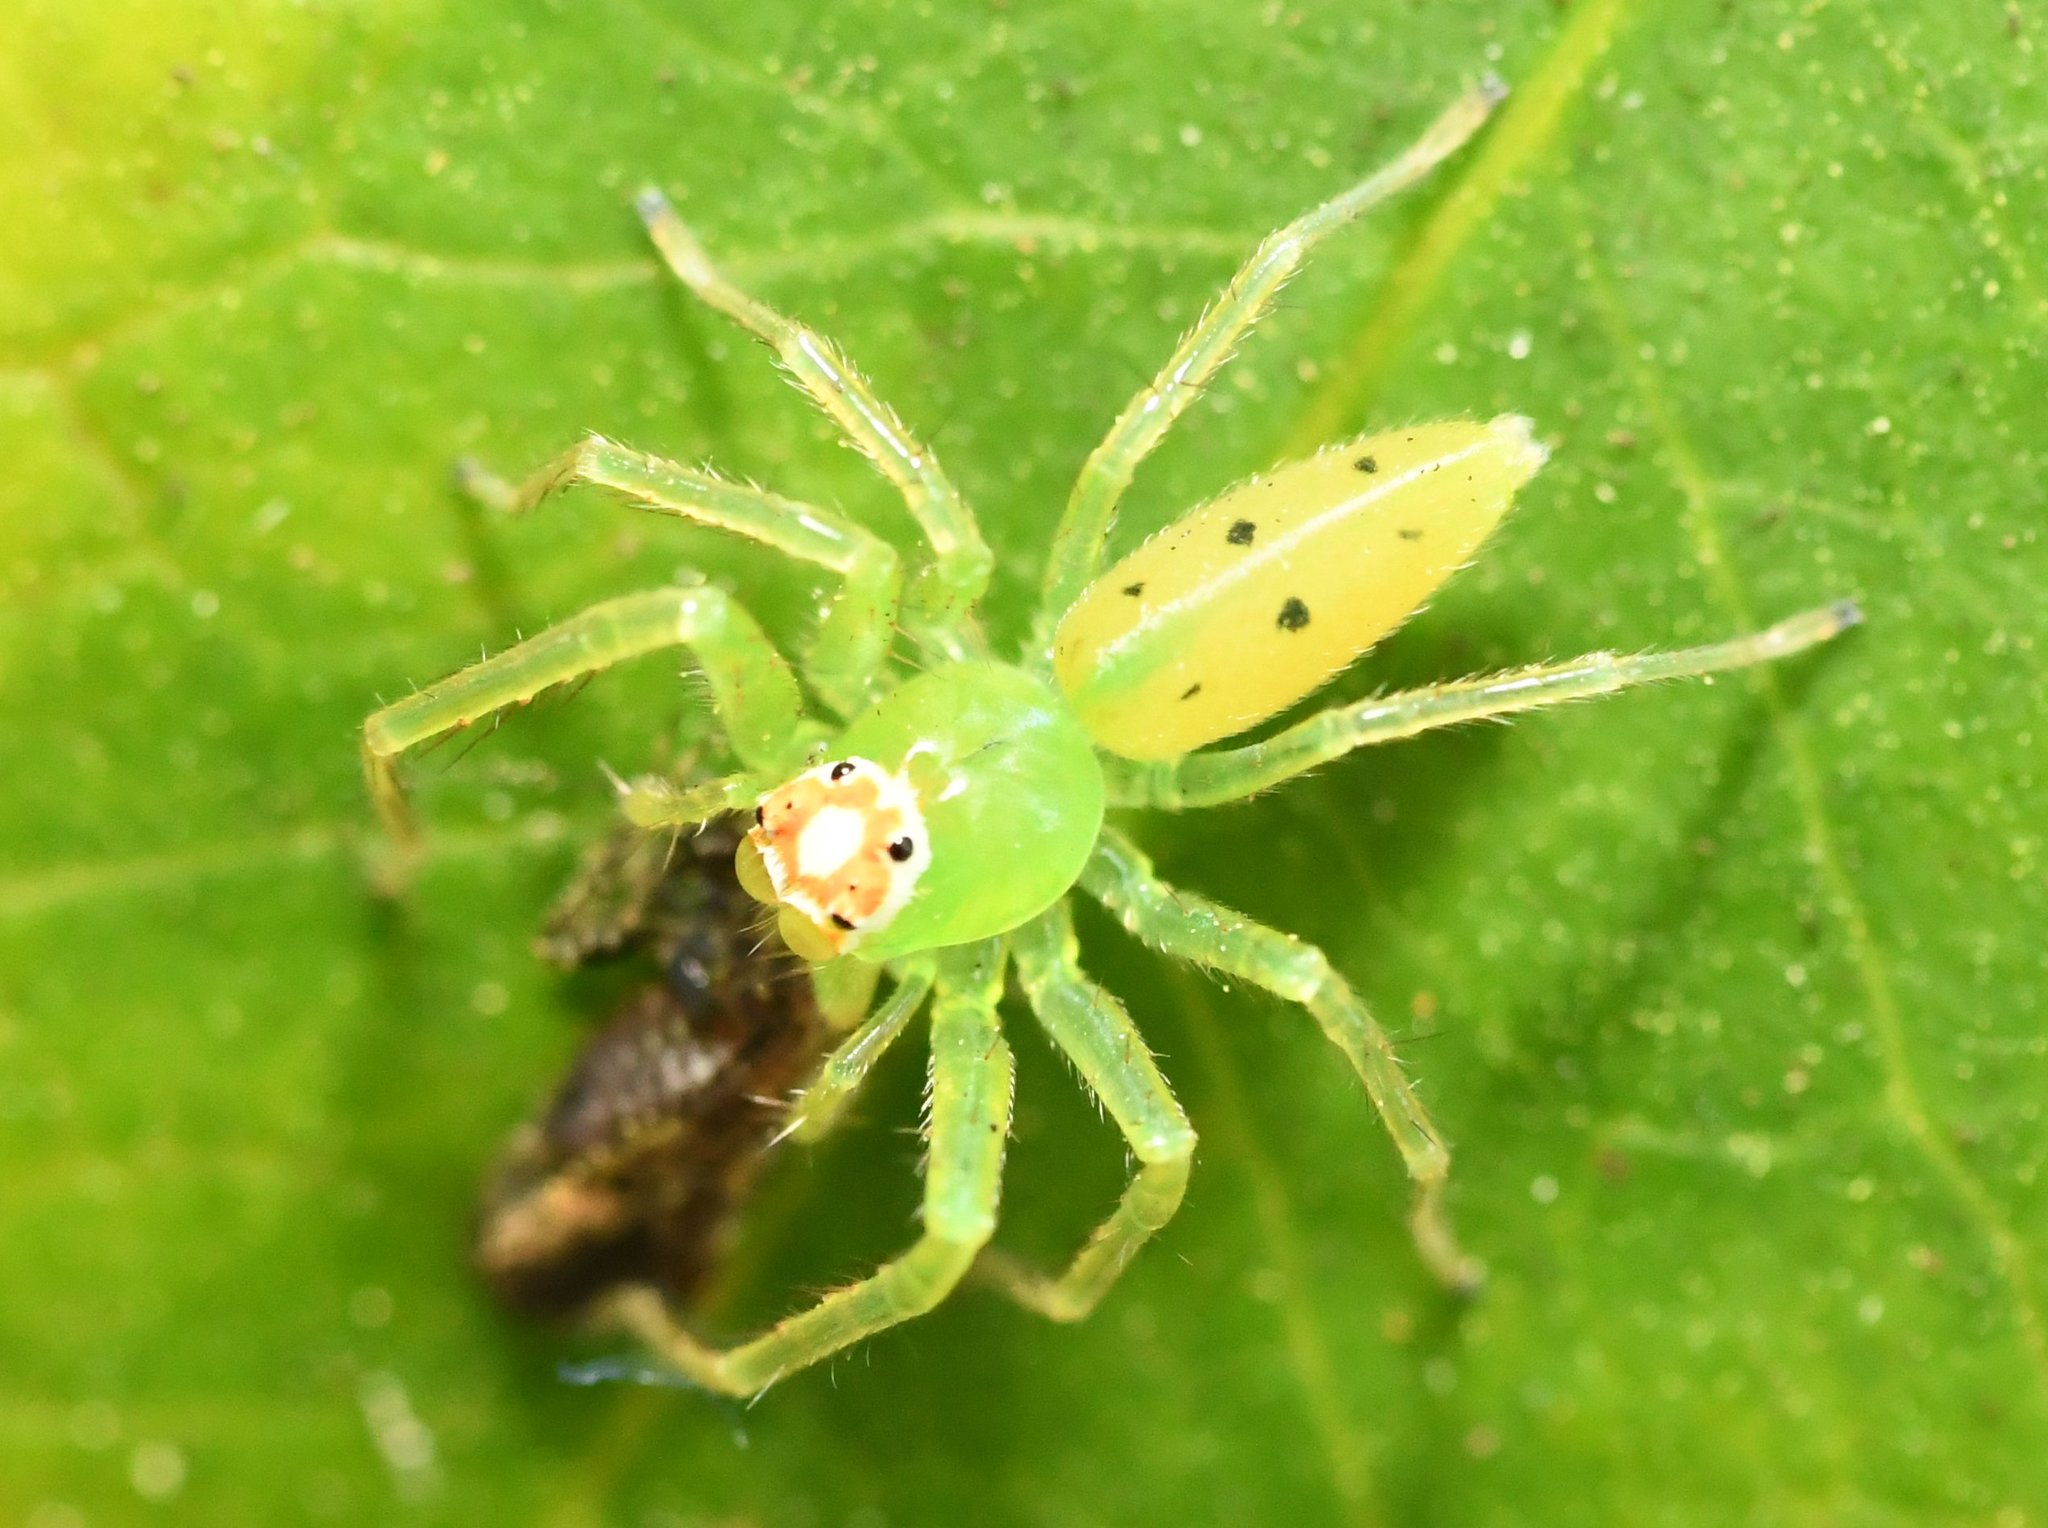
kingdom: Animalia
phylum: Arthropoda
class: Arachnida
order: Araneae
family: Salticidae
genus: Lyssomanes
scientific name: Lyssomanes viridis
